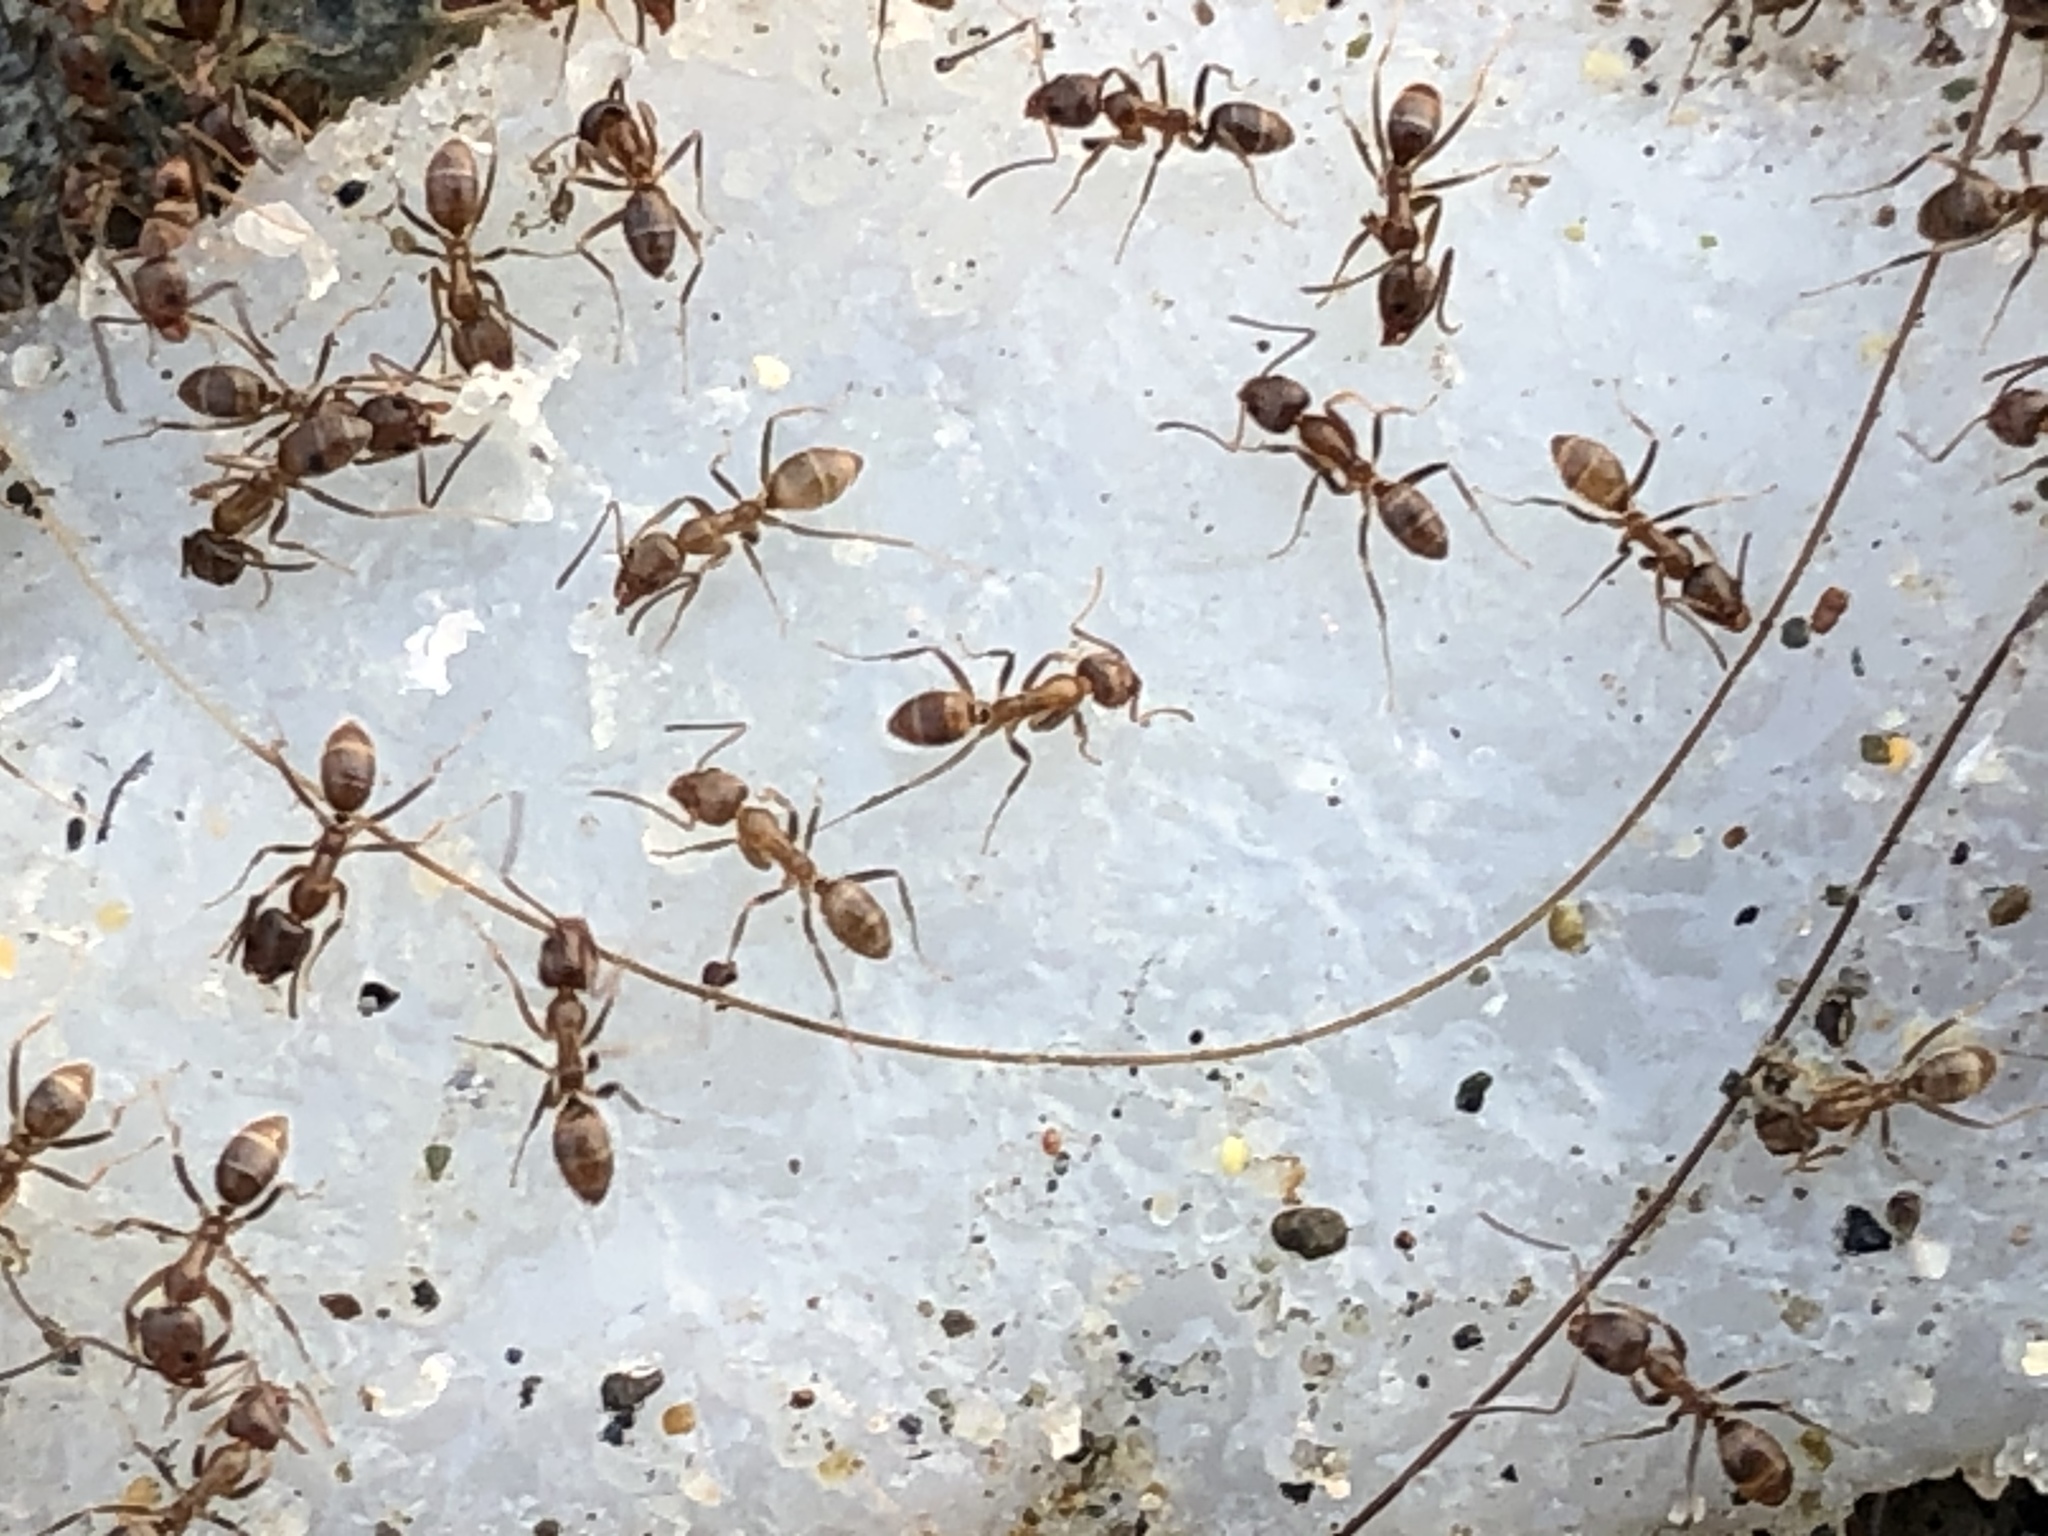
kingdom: Animalia
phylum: Arthropoda
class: Insecta
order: Hymenoptera
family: Formicidae
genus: Linepithema
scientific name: Linepithema humile
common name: Argentine ant
